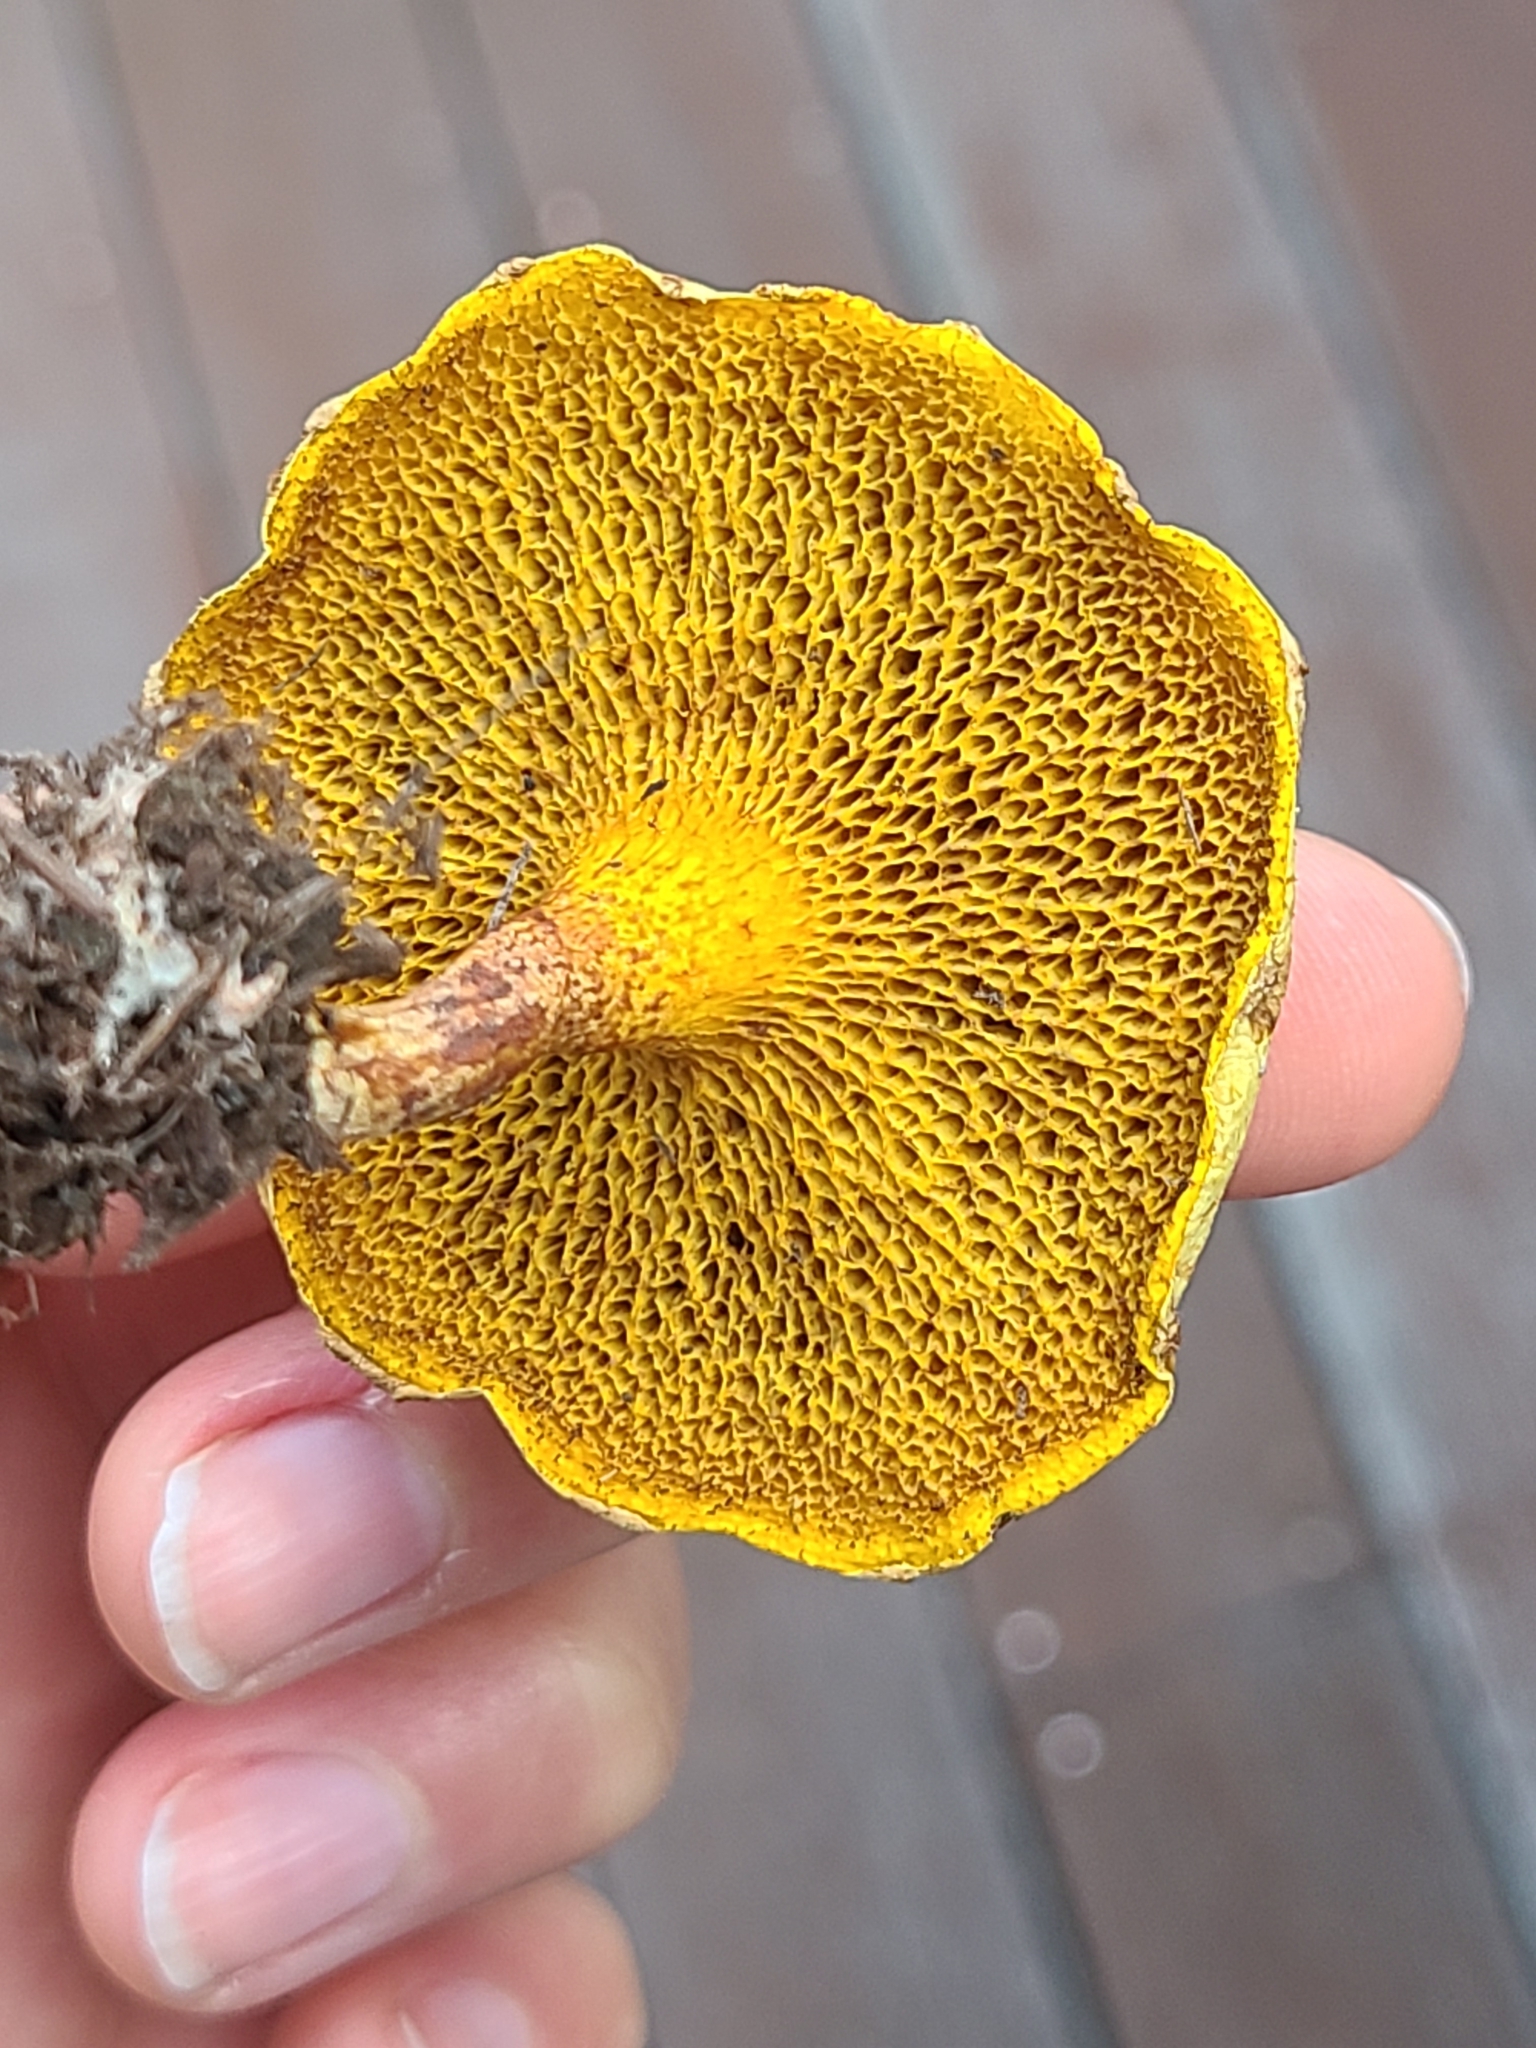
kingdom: Fungi
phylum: Basidiomycota
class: Agaricomycetes
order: Boletales
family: Suillaceae
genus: Suillus
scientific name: Suillus americanus
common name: Chicken fat mushroom
